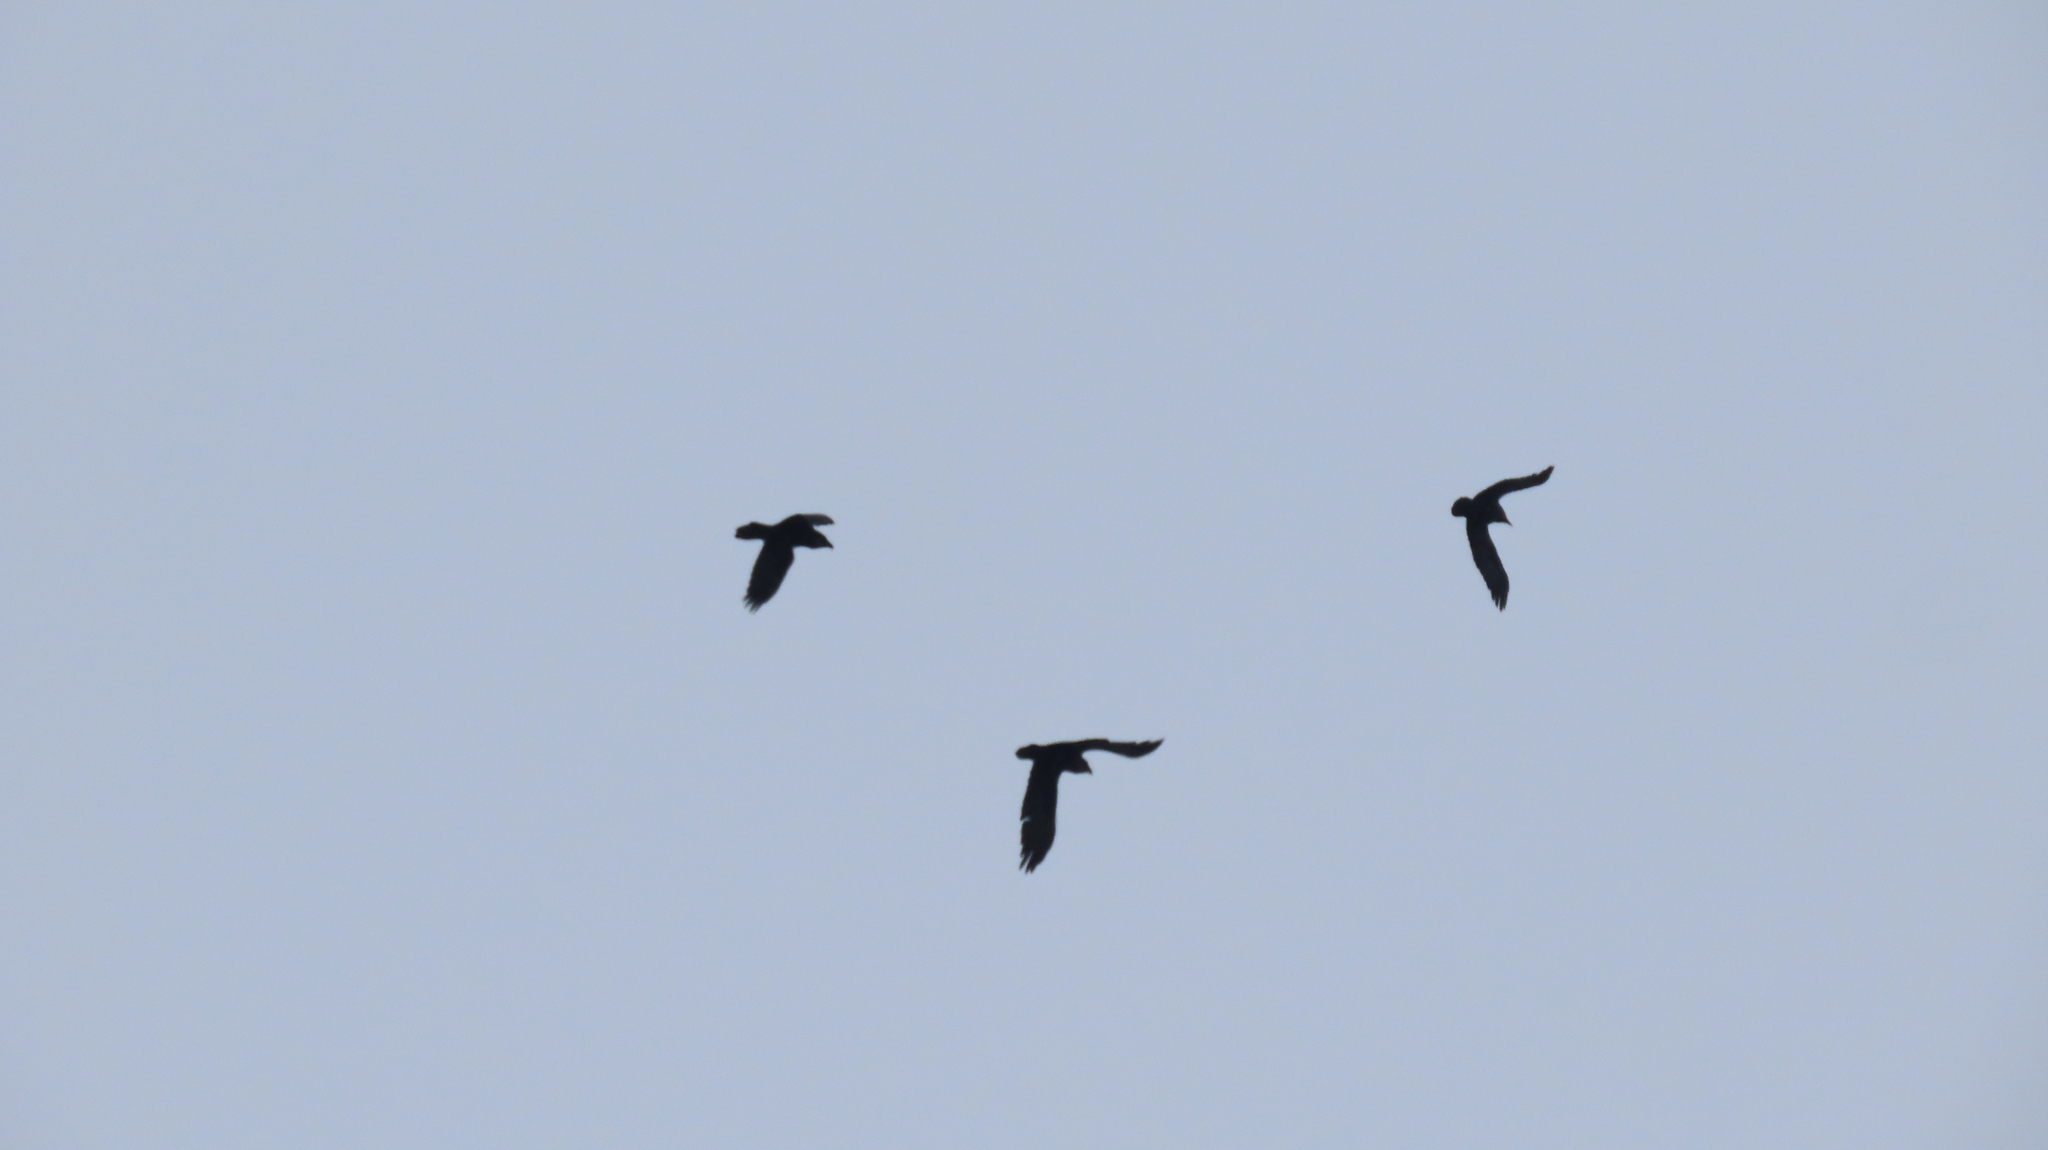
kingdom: Animalia
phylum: Chordata
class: Aves
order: Passeriformes
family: Corvidae
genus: Corvus
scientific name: Corvus corax
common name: Common raven
